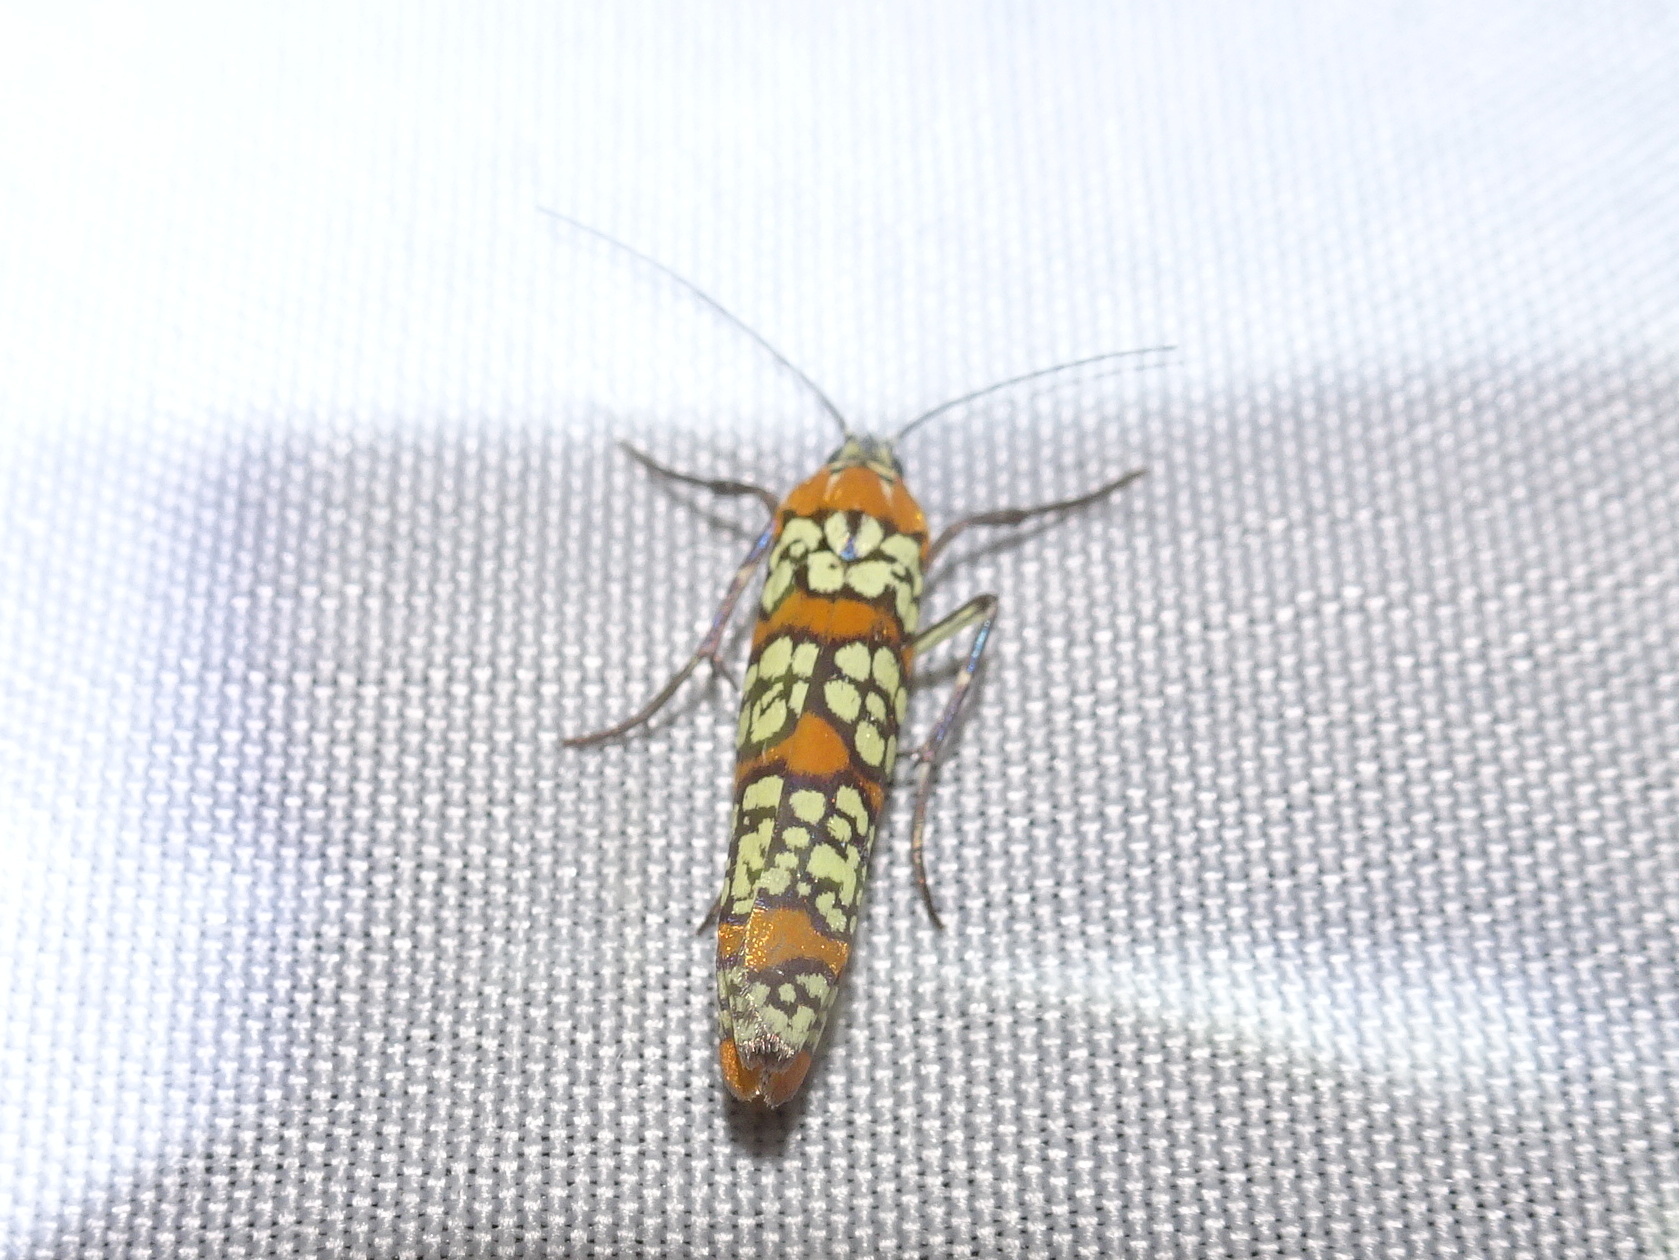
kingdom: Animalia
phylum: Arthropoda
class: Insecta
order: Lepidoptera
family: Attevidae
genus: Atteva
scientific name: Atteva punctella
